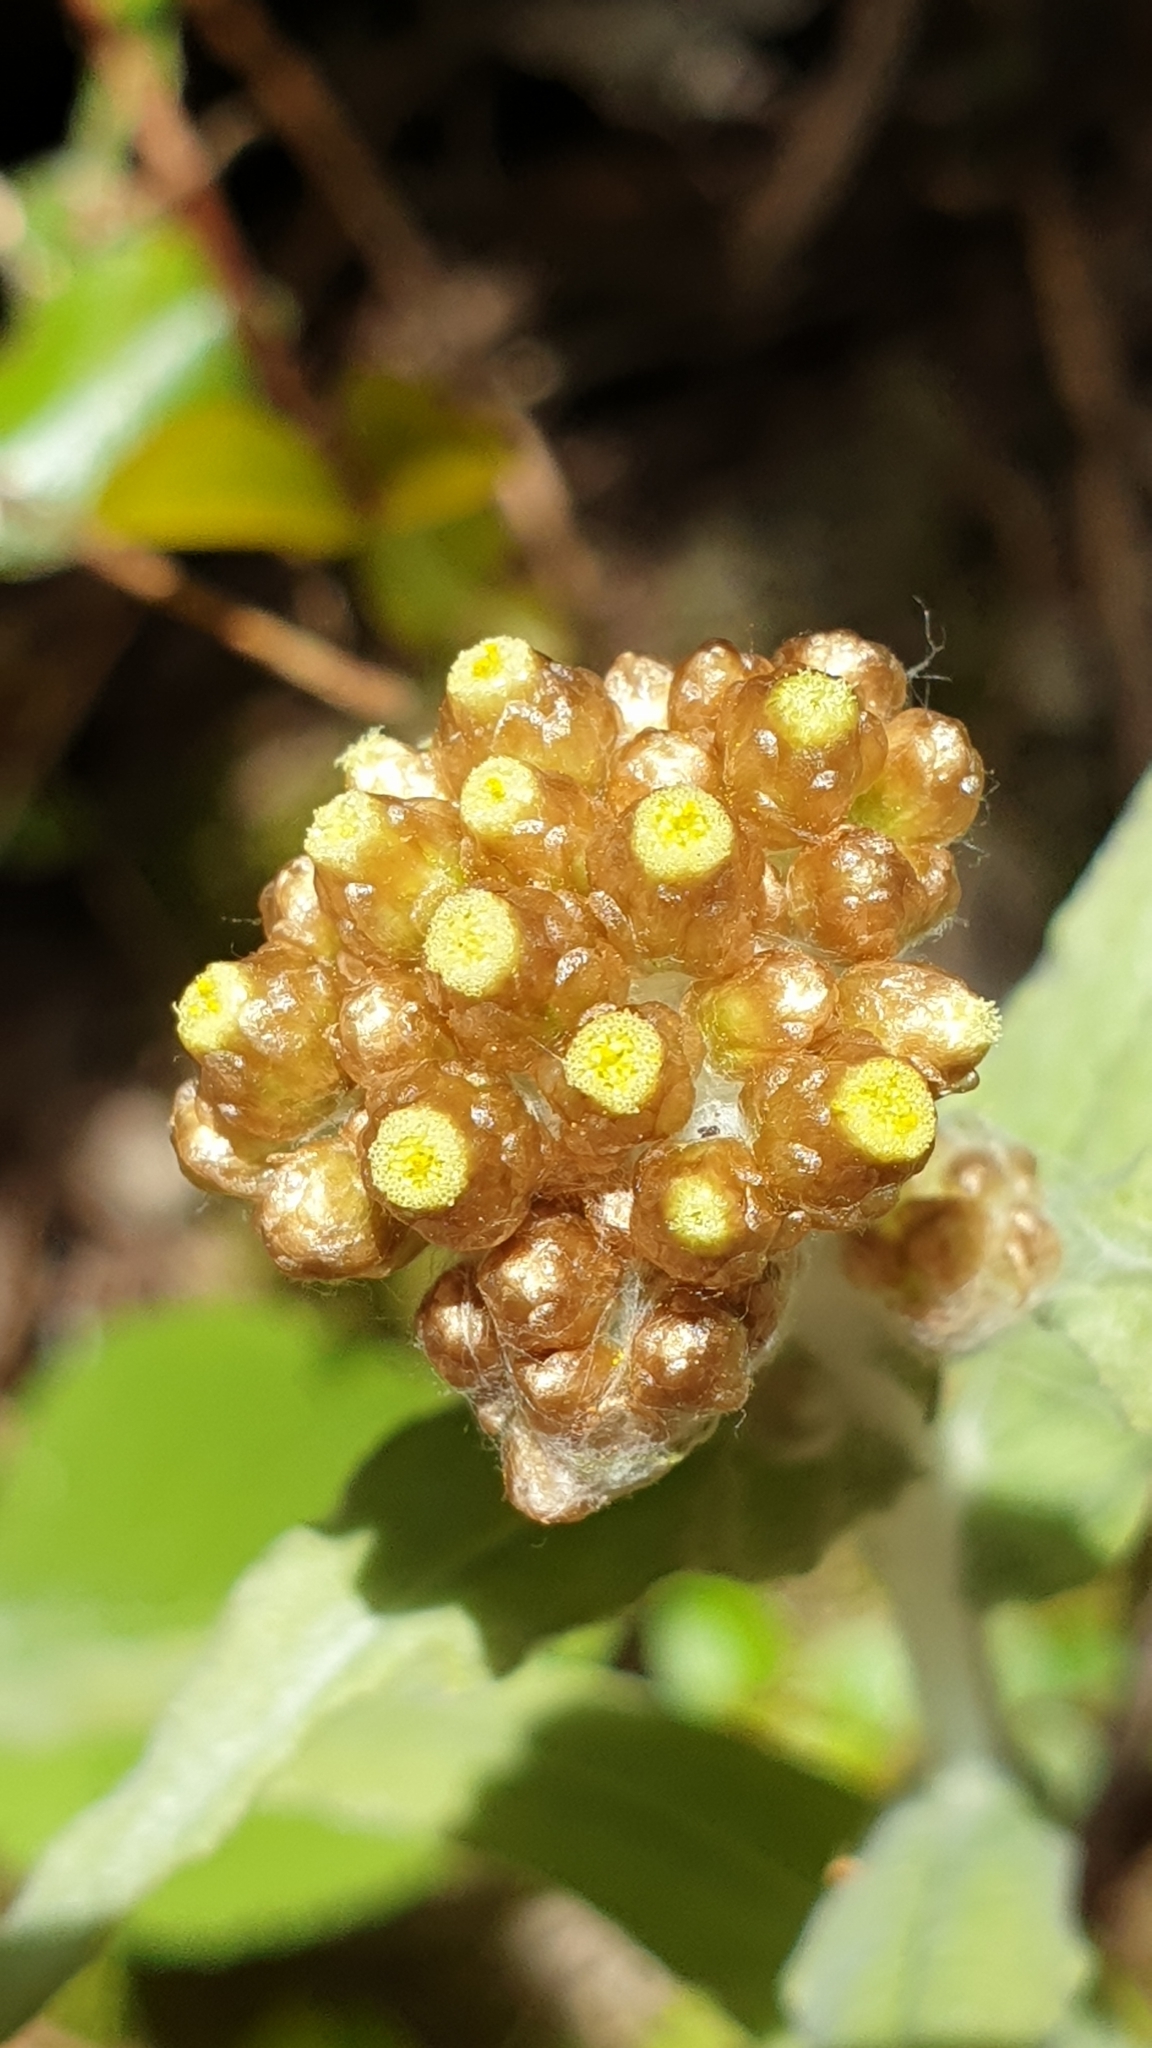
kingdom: Plantae
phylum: Tracheophyta
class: Magnoliopsida
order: Asterales
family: Asteraceae
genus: Helichrysum
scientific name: Helichrysum luteoalbum
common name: Daisy
